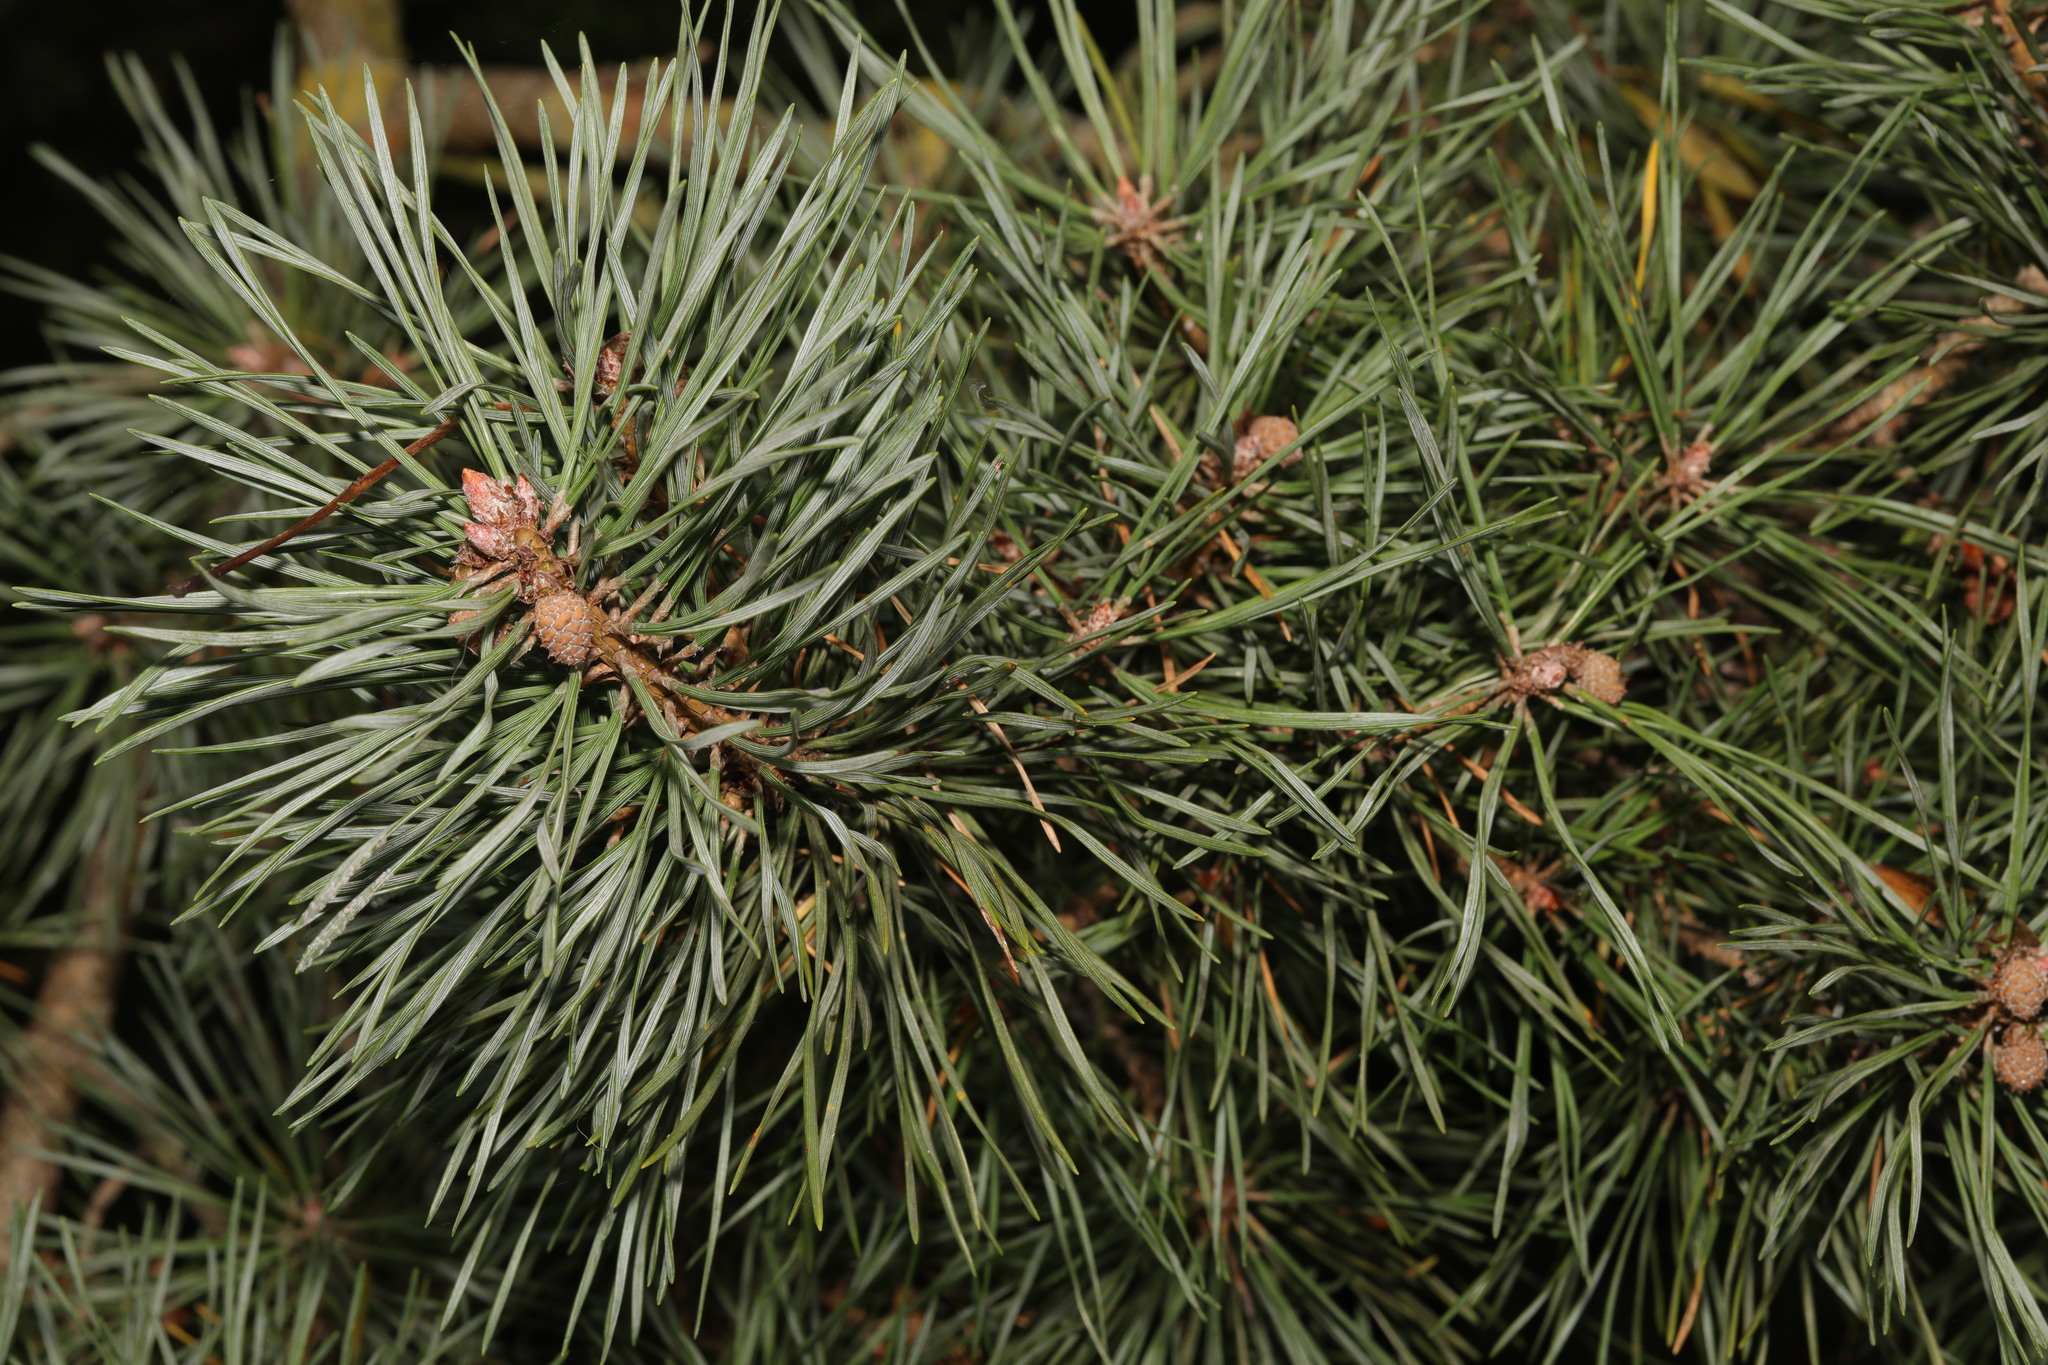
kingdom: Plantae
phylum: Tracheophyta
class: Pinopsida
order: Pinales
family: Pinaceae
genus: Pinus
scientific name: Pinus sylvestris
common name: Scots pine
